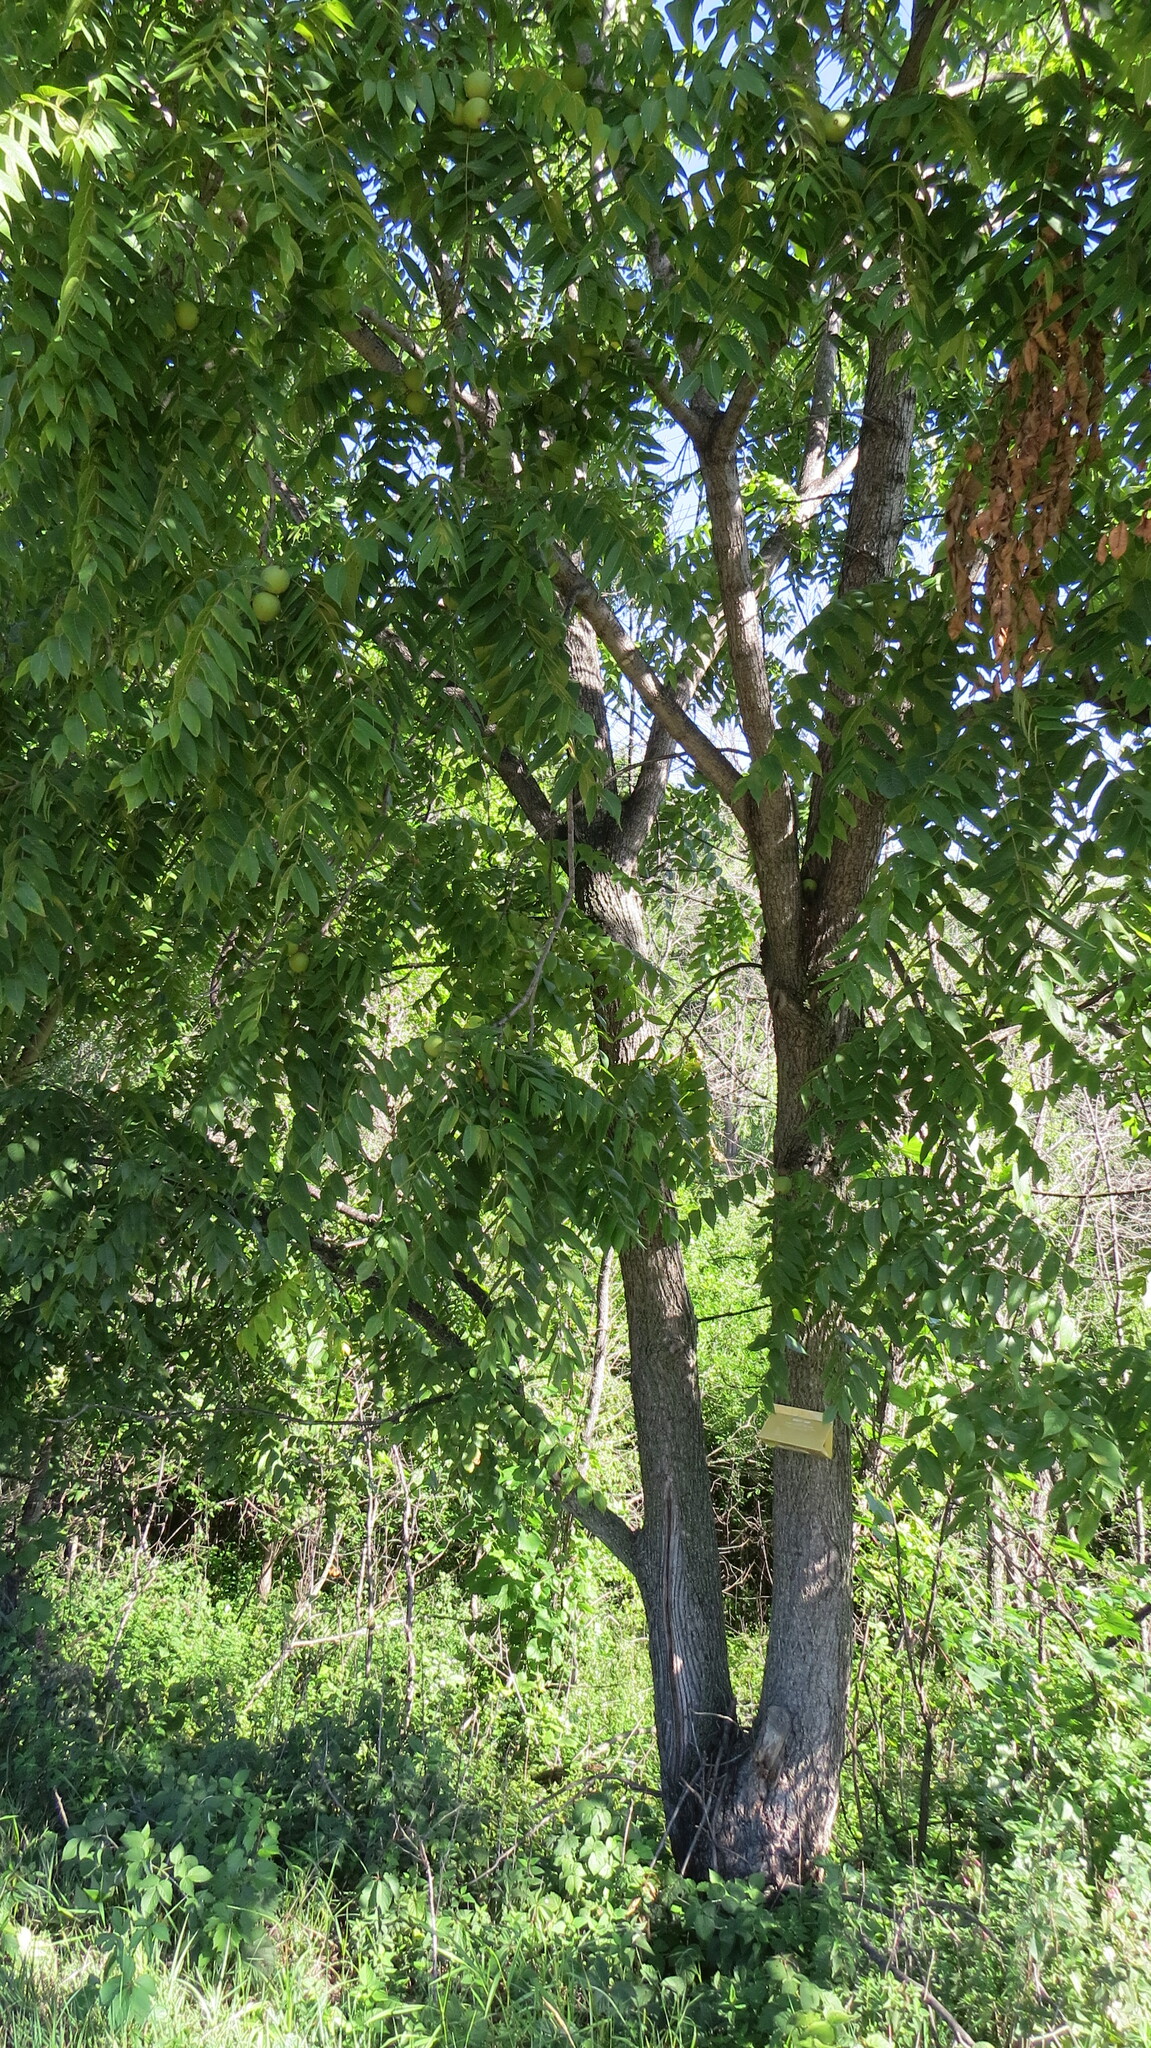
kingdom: Plantae
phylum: Tracheophyta
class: Magnoliopsida
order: Fagales
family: Juglandaceae
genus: Juglans
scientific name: Juglans nigra
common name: Black walnut
